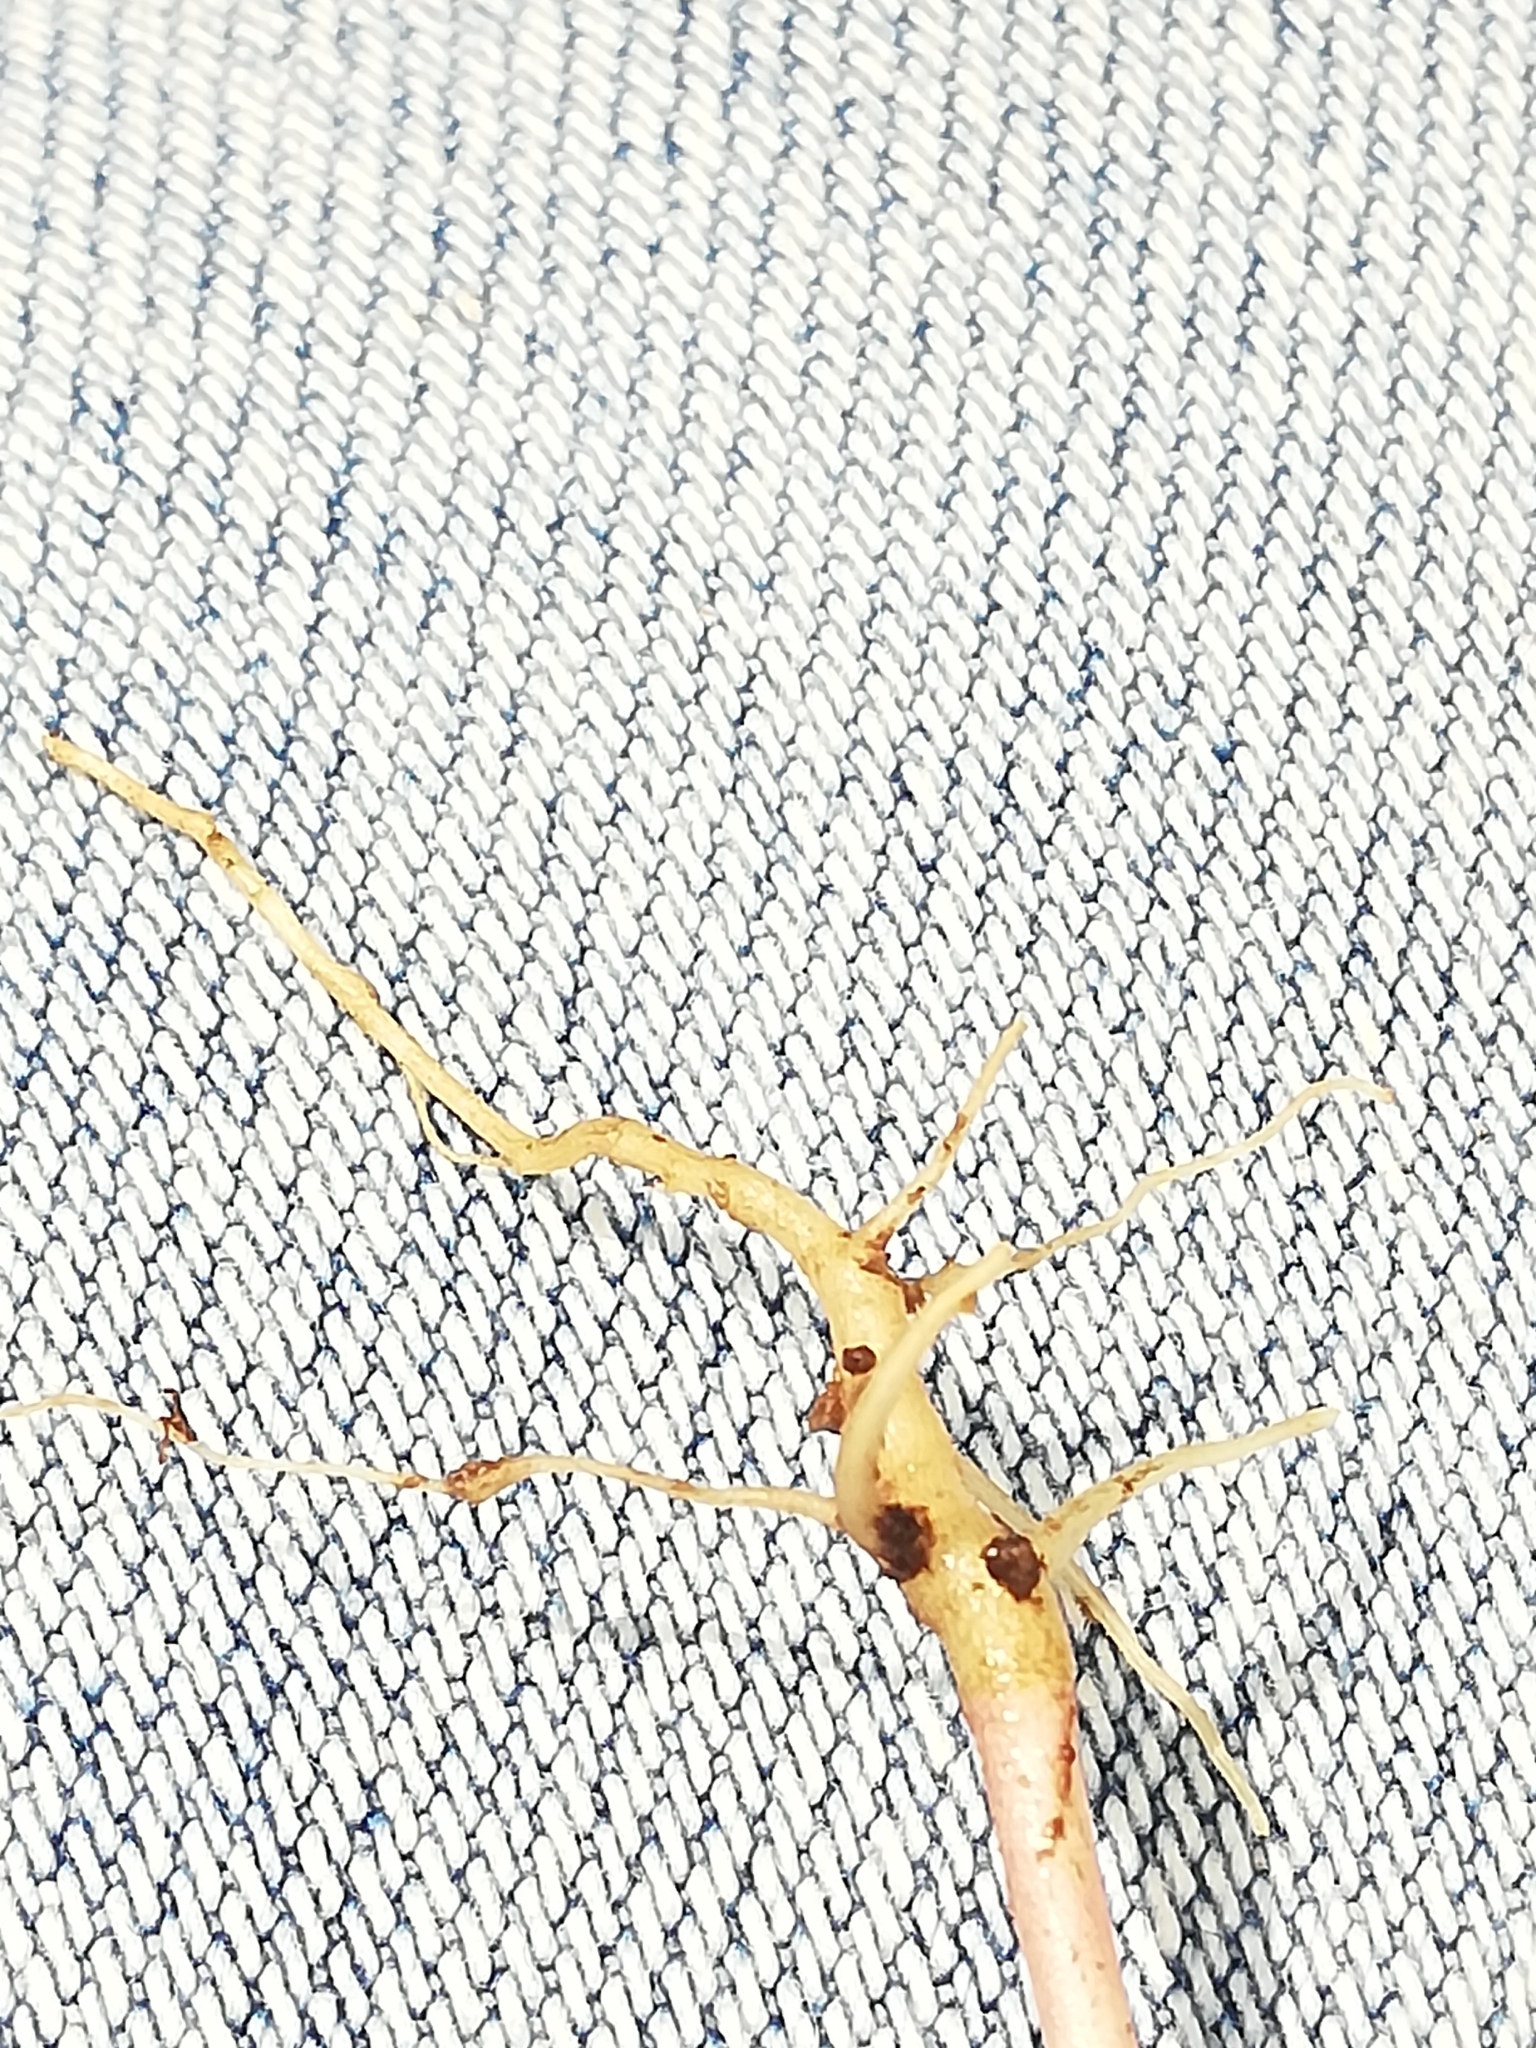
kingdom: Plantae
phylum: Tracheophyta
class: Magnoliopsida
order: Lamiales
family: Orobanchaceae
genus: Melampyrum
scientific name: Melampyrum nemorosum
